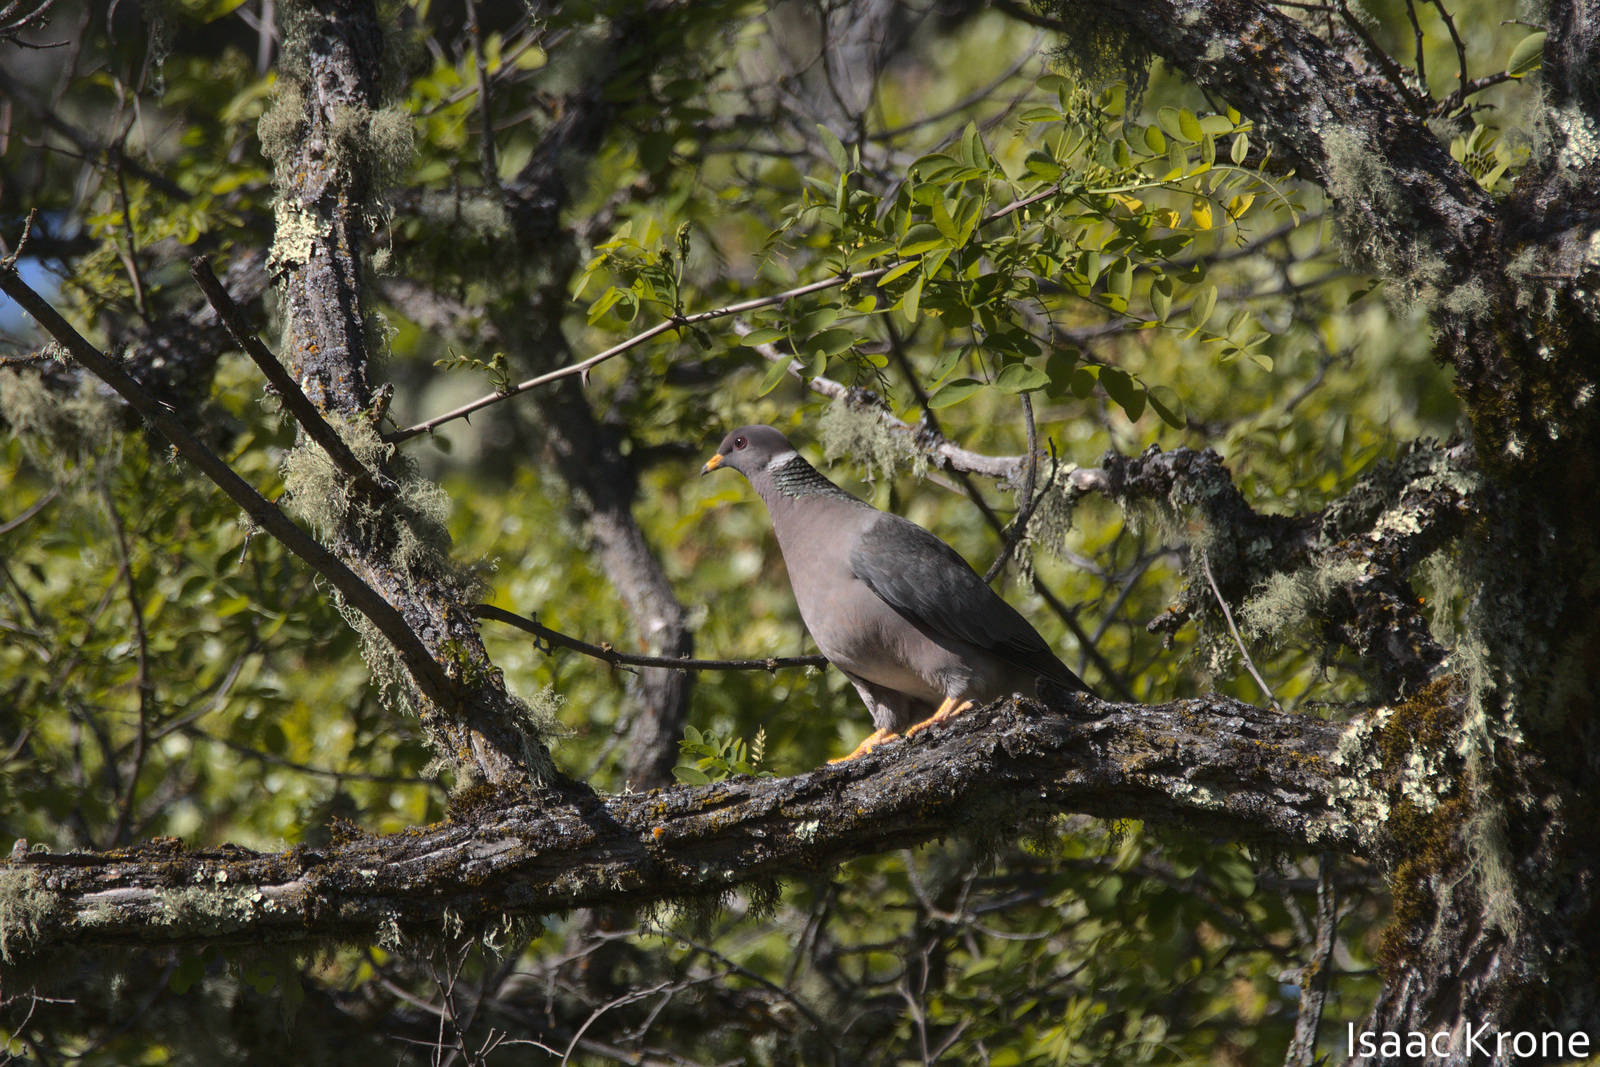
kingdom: Animalia
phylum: Chordata
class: Aves
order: Columbiformes
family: Columbidae
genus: Patagioenas
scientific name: Patagioenas fasciata
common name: Band-tailed pigeon
